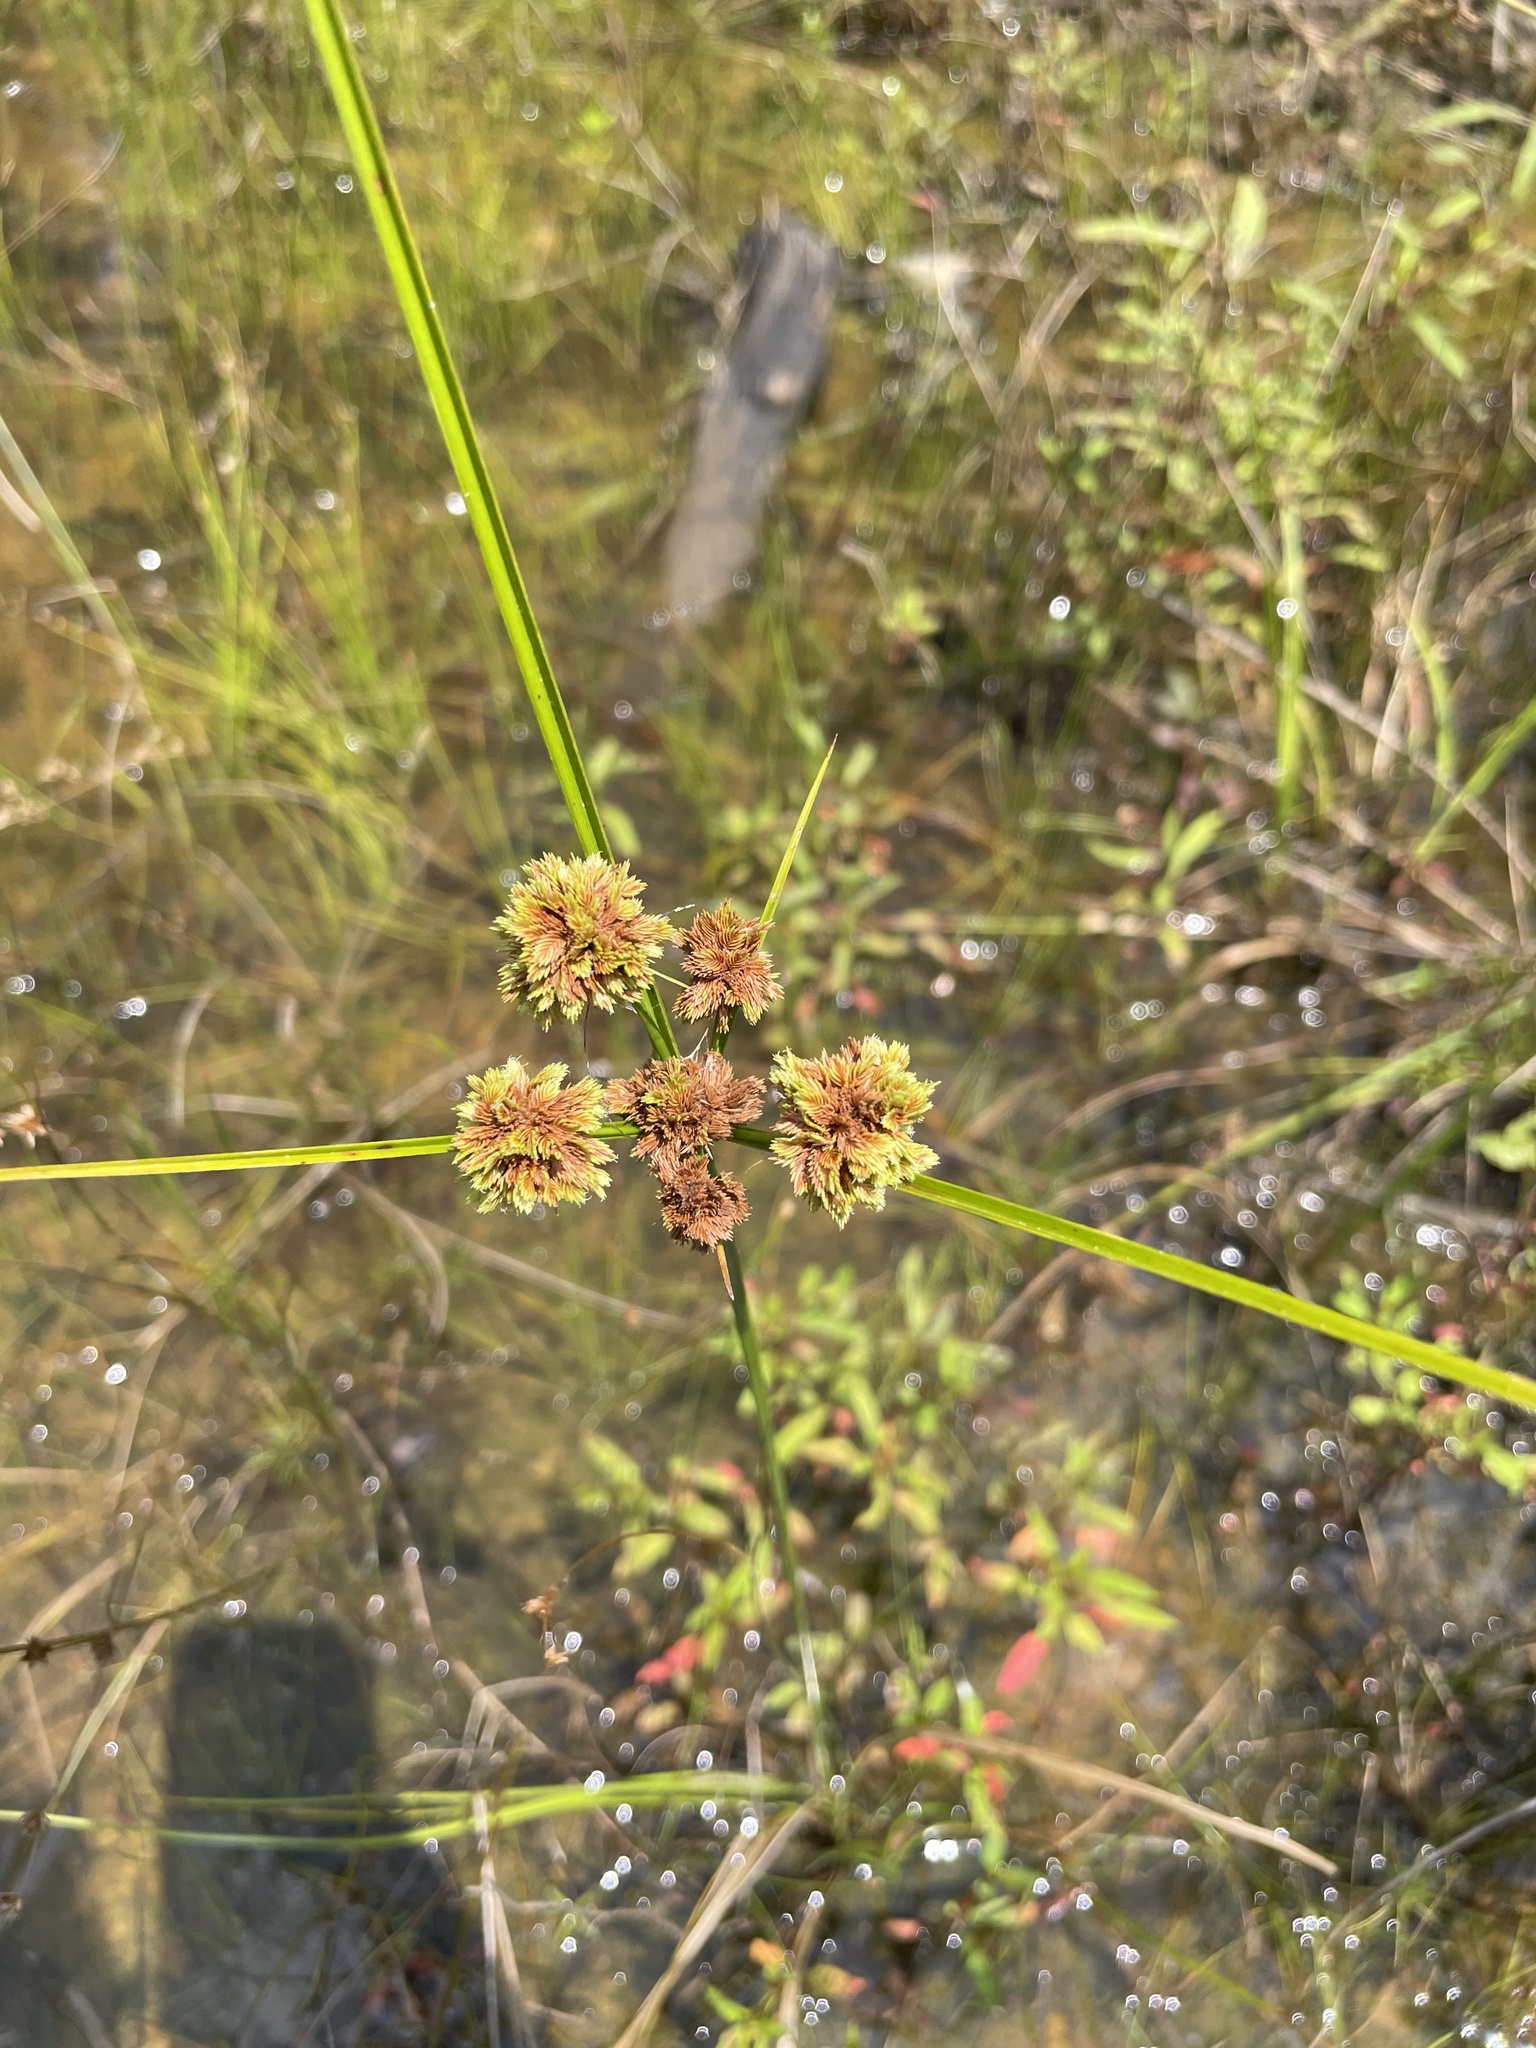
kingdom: Plantae
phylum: Tracheophyta
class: Liliopsida
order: Poales
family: Cyperaceae
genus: Cyperus
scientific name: Cyperus pseudovegetus
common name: Marsh flat sedge
